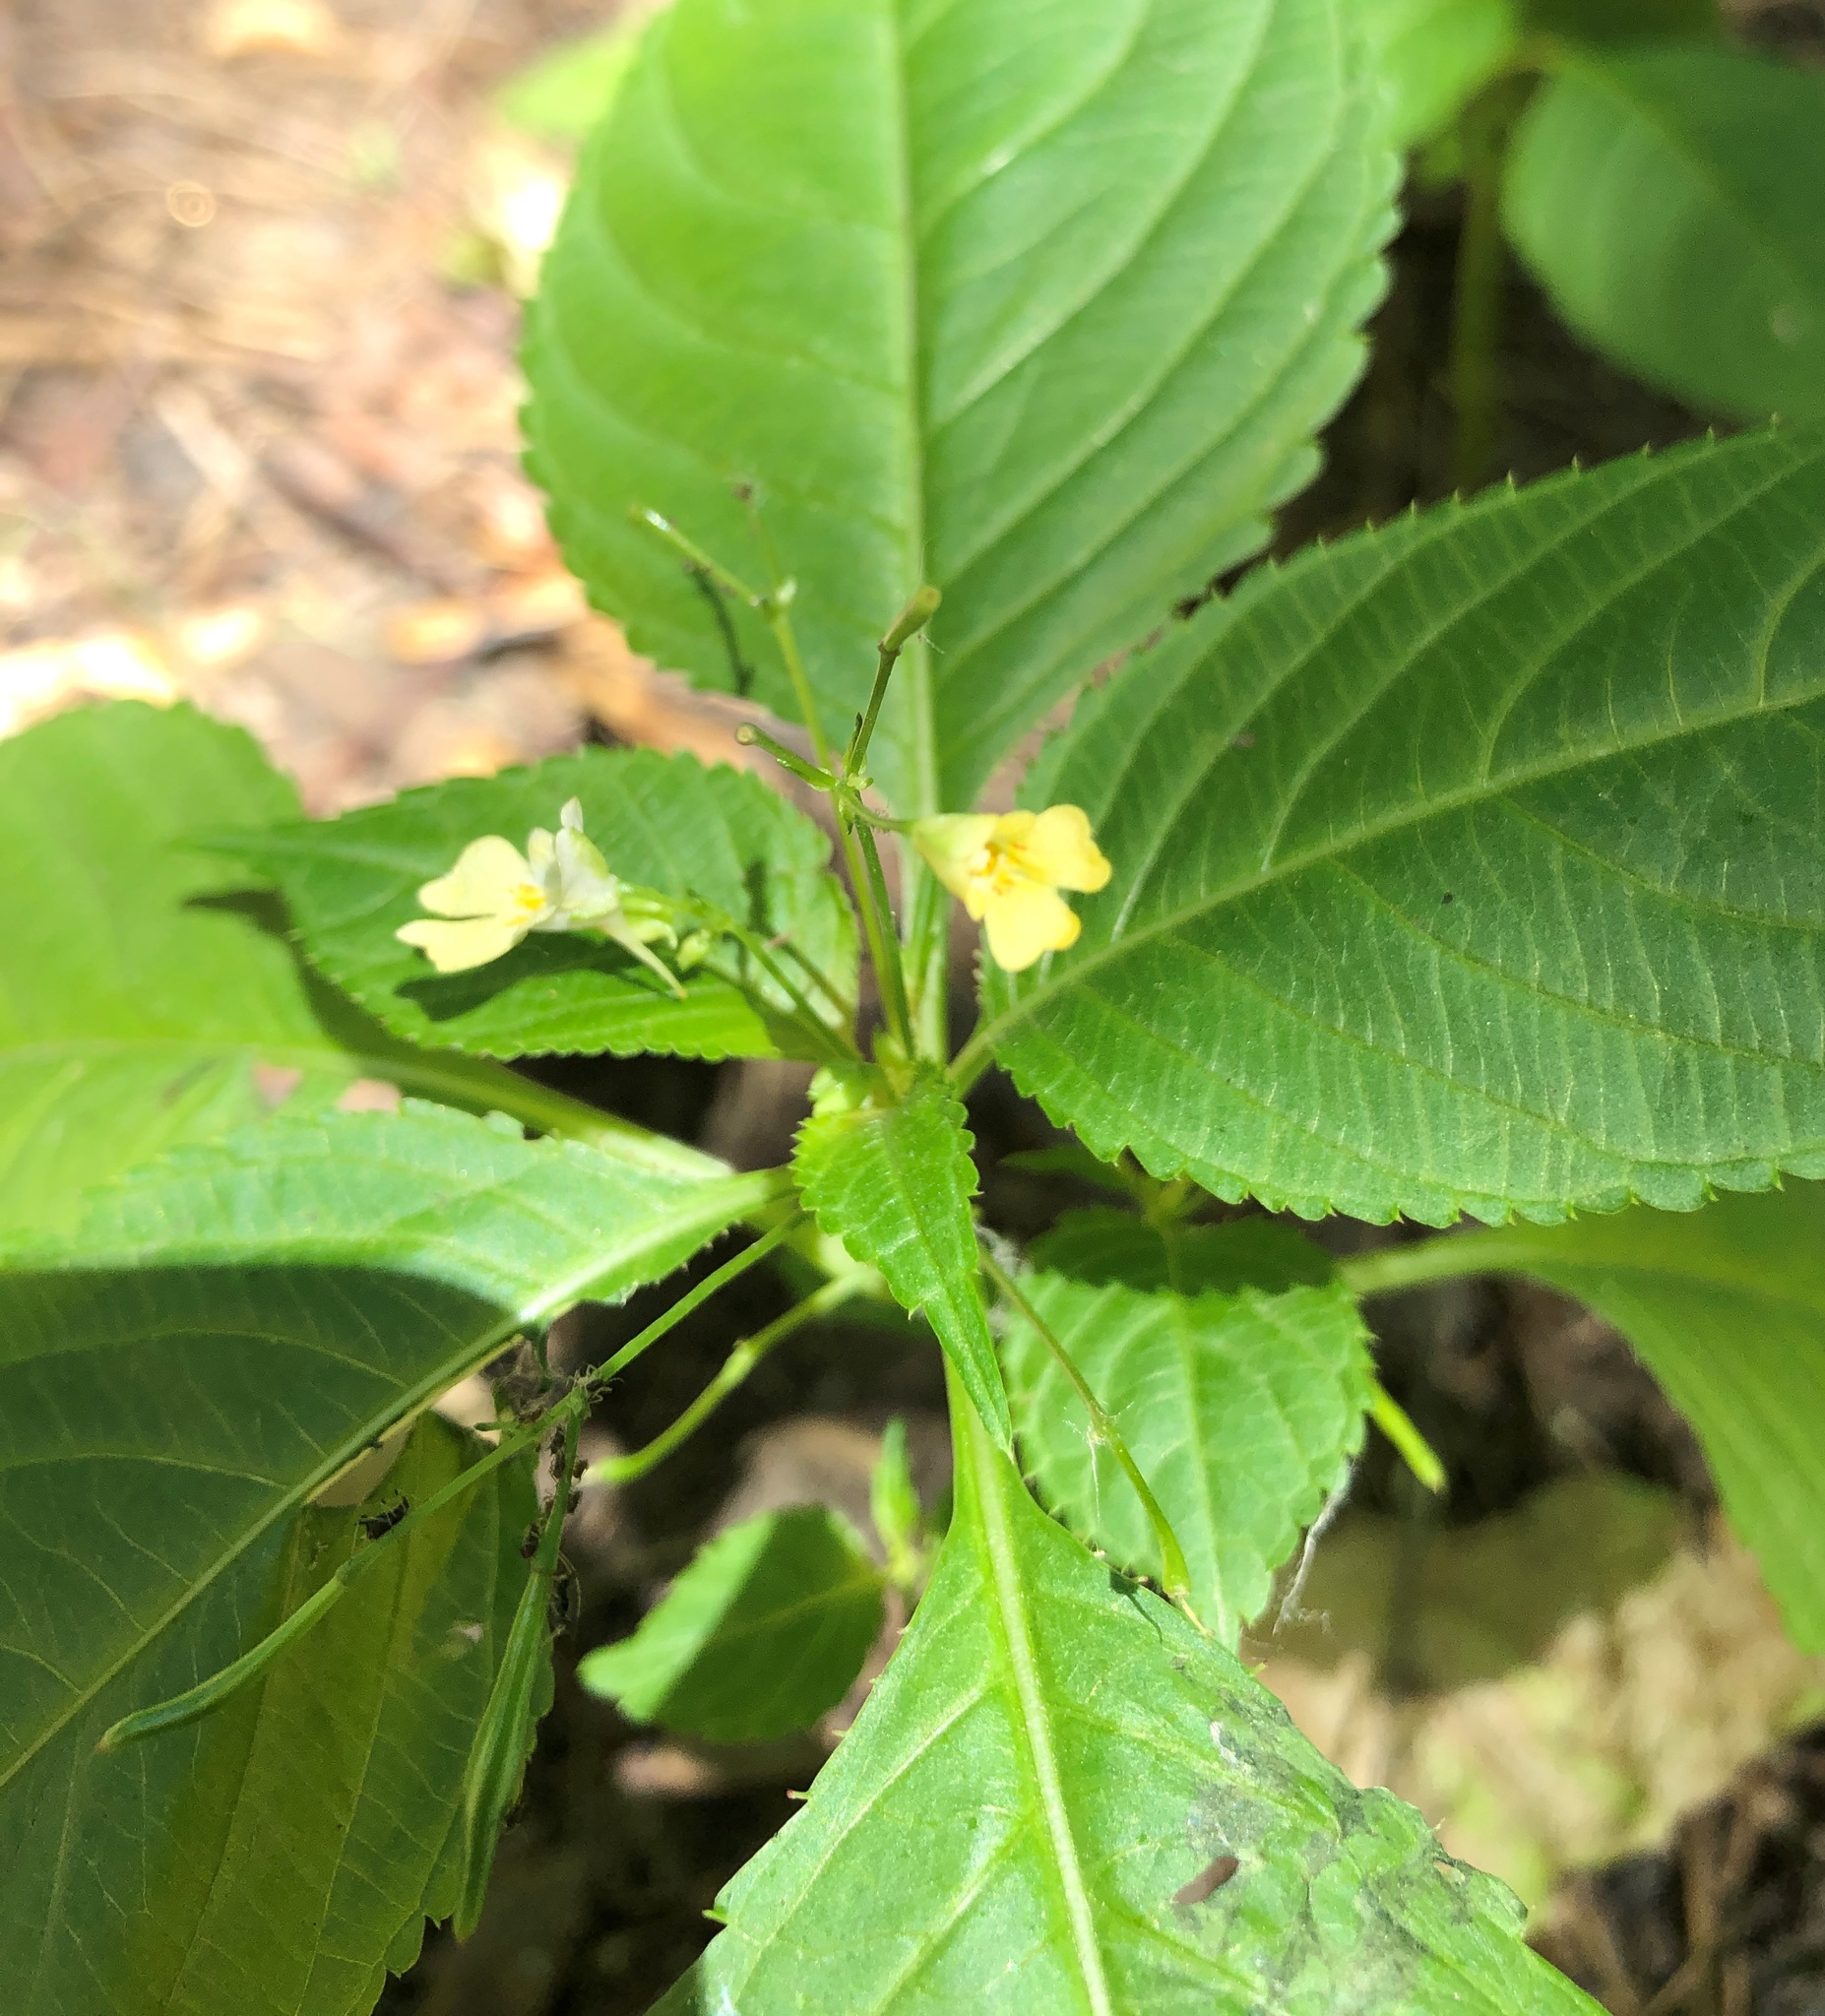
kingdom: Plantae
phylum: Tracheophyta
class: Magnoliopsida
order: Ericales
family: Balsaminaceae
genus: Impatiens
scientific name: Impatiens parviflora
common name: Small balsam
